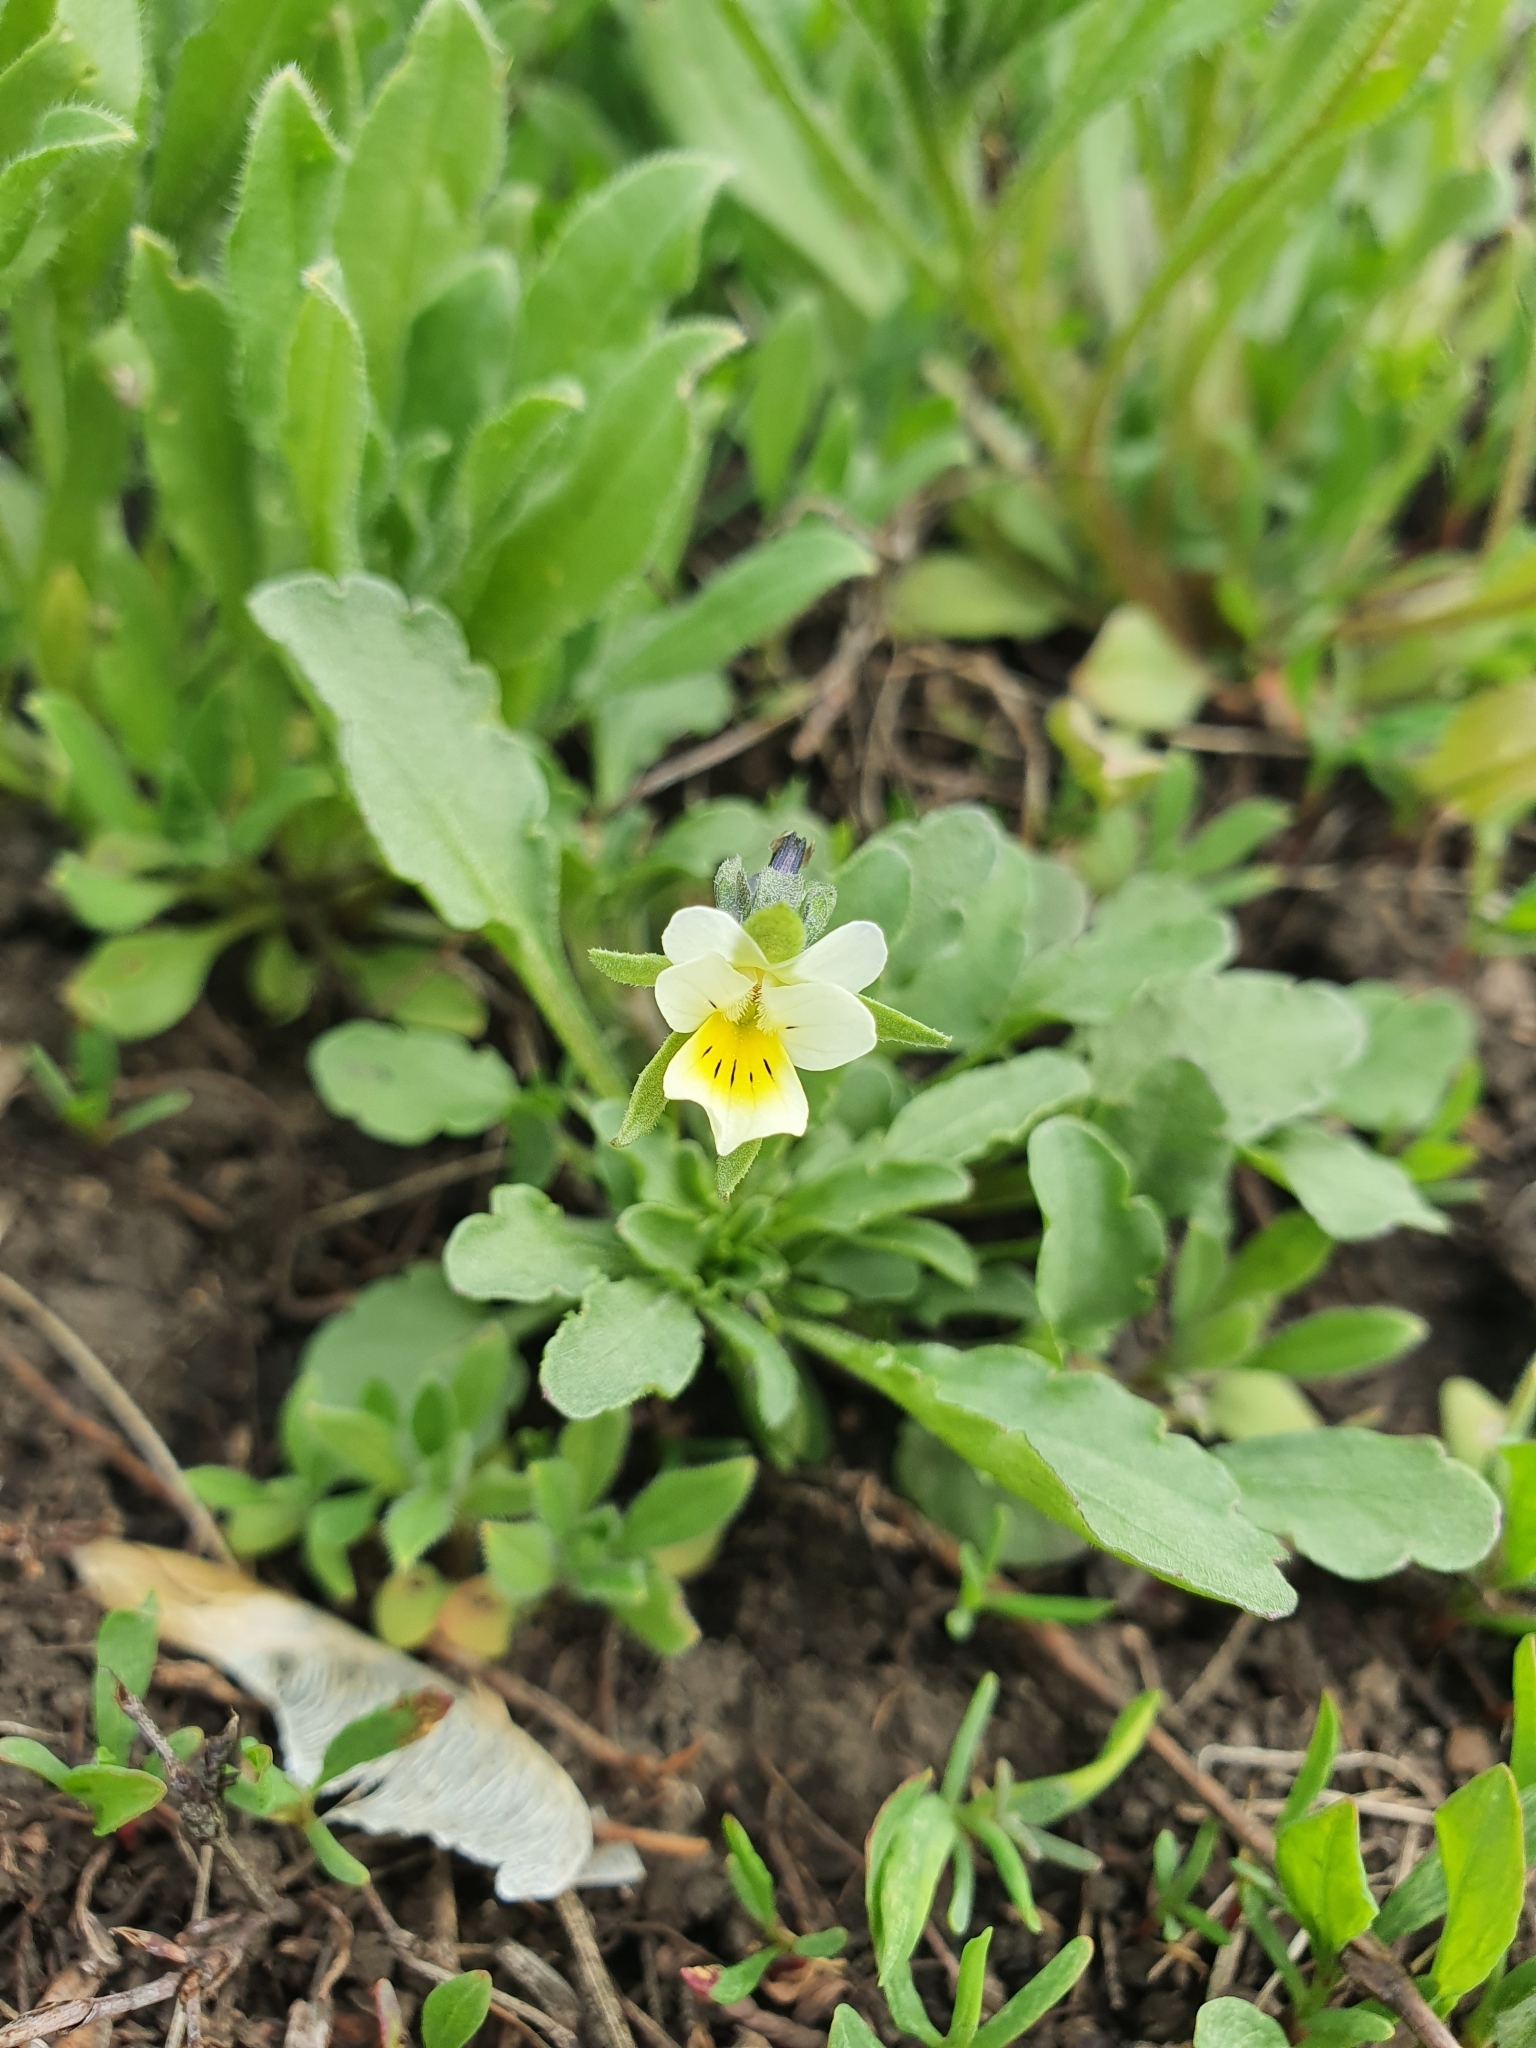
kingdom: Plantae
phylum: Tracheophyta
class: Magnoliopsida
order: Malpighiales
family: Violaceae
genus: Viola
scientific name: Viola arvensis
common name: Field pansy
